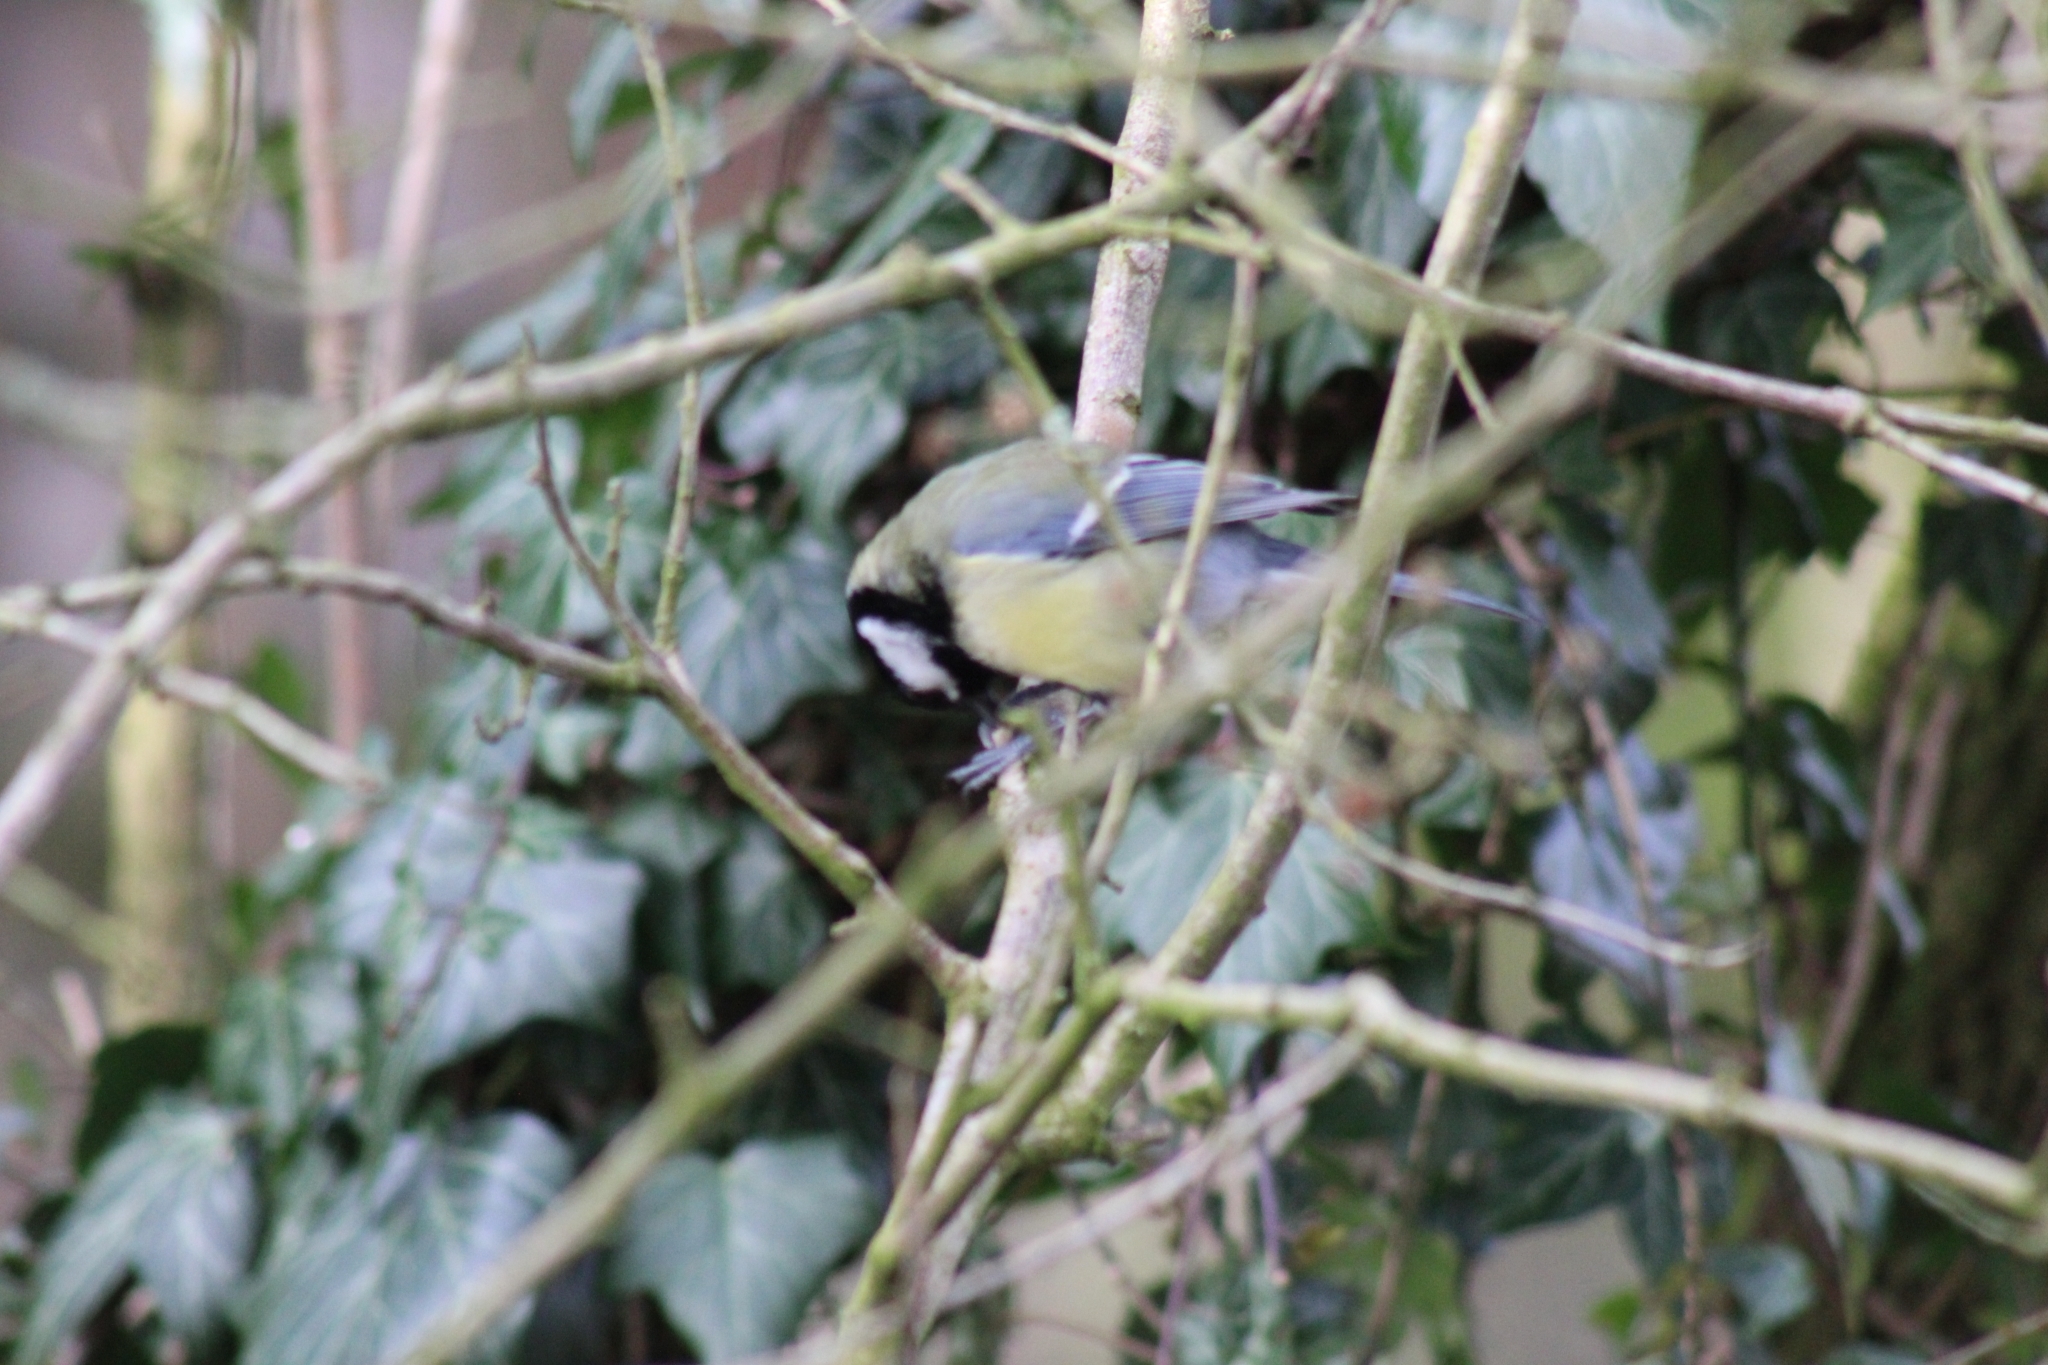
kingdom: Animalia
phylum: Chordata
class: Aves
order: Passeriformes
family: Paridae
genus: Parus
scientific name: Parus major
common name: Great tit
